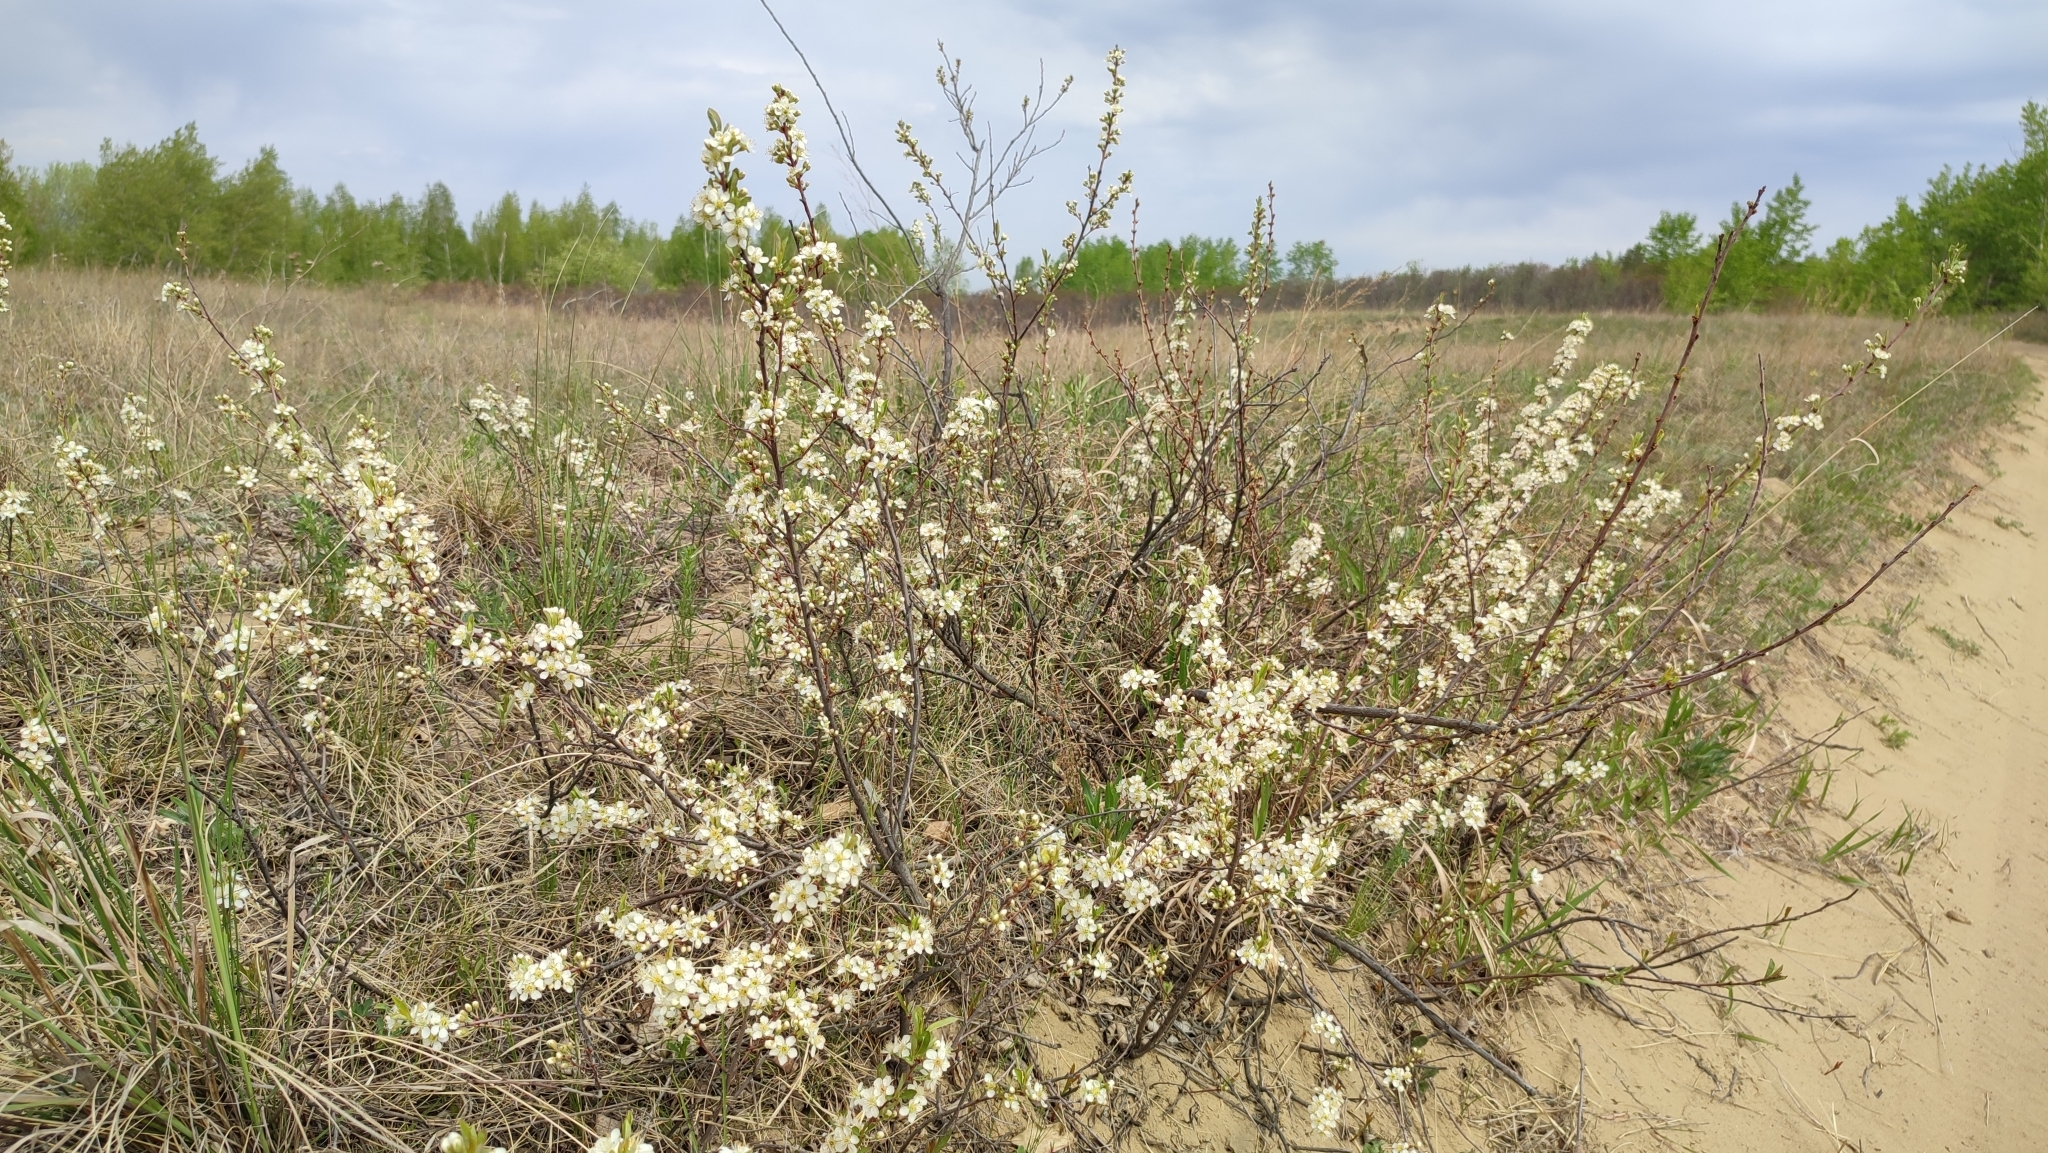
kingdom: Plantae
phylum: Tracheophyta
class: Magnoliopsida
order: Rosales
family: Rosaceae
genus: Prunus
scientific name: Prunus pumila
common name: Dwarf cherry
